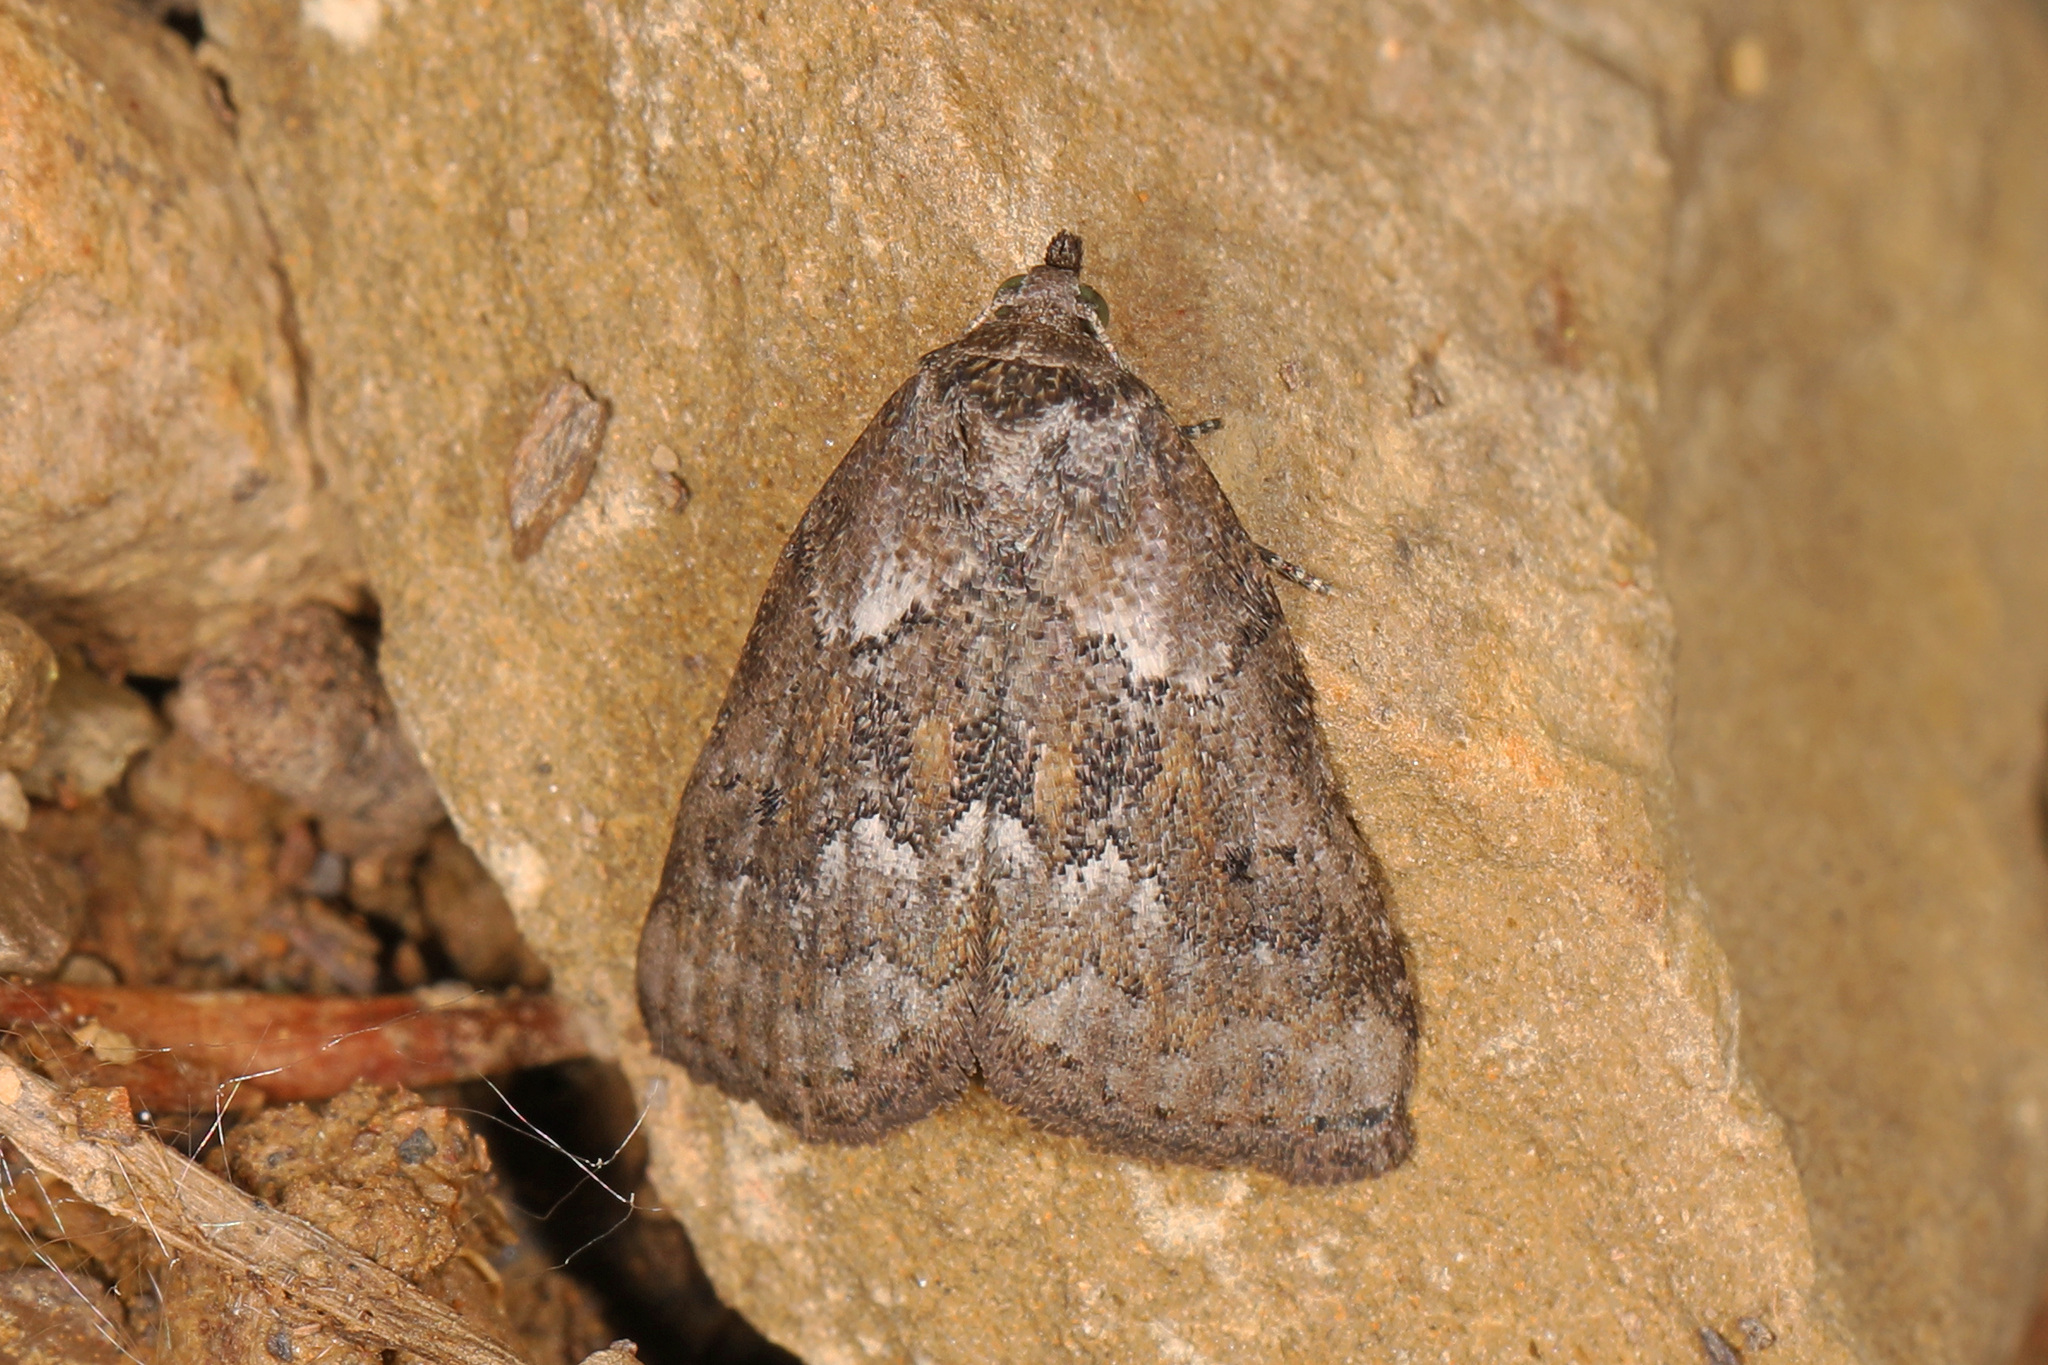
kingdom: Animalia
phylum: Arthropoda
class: Insecta
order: Lepidoptera
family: Erebidae
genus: Hyperstrotia
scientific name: Hyperstrotia nana
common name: White-lined graylet
